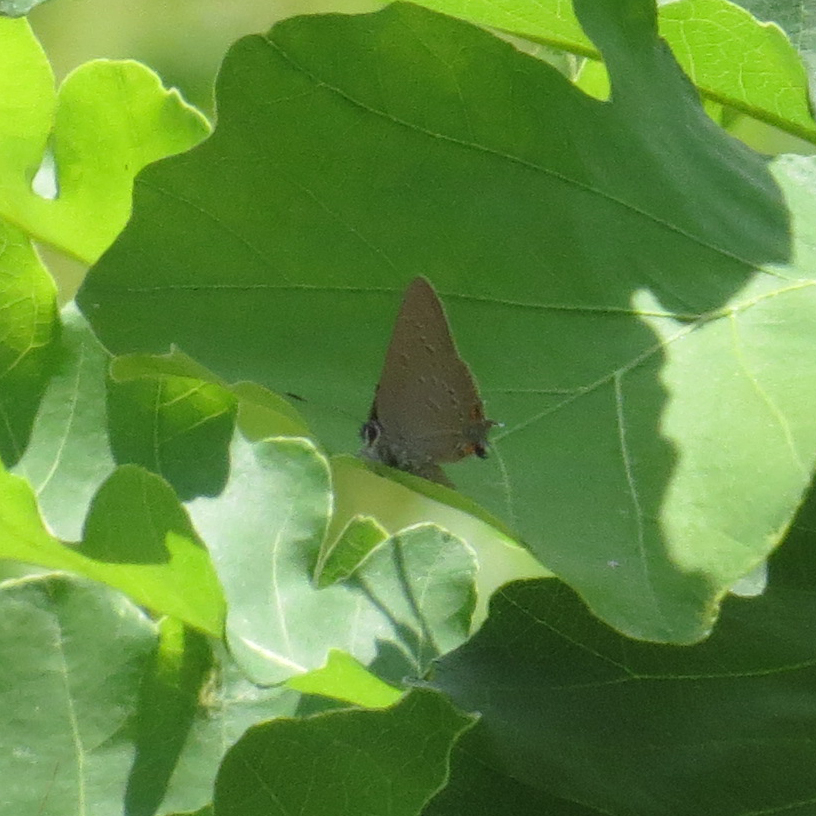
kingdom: Animalia
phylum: Arthropoda
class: Insecta
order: Lepidoptera
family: Lycaenidae
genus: Satyrium
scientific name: Satyrium edwardsii
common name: Edwards' hairstreak
